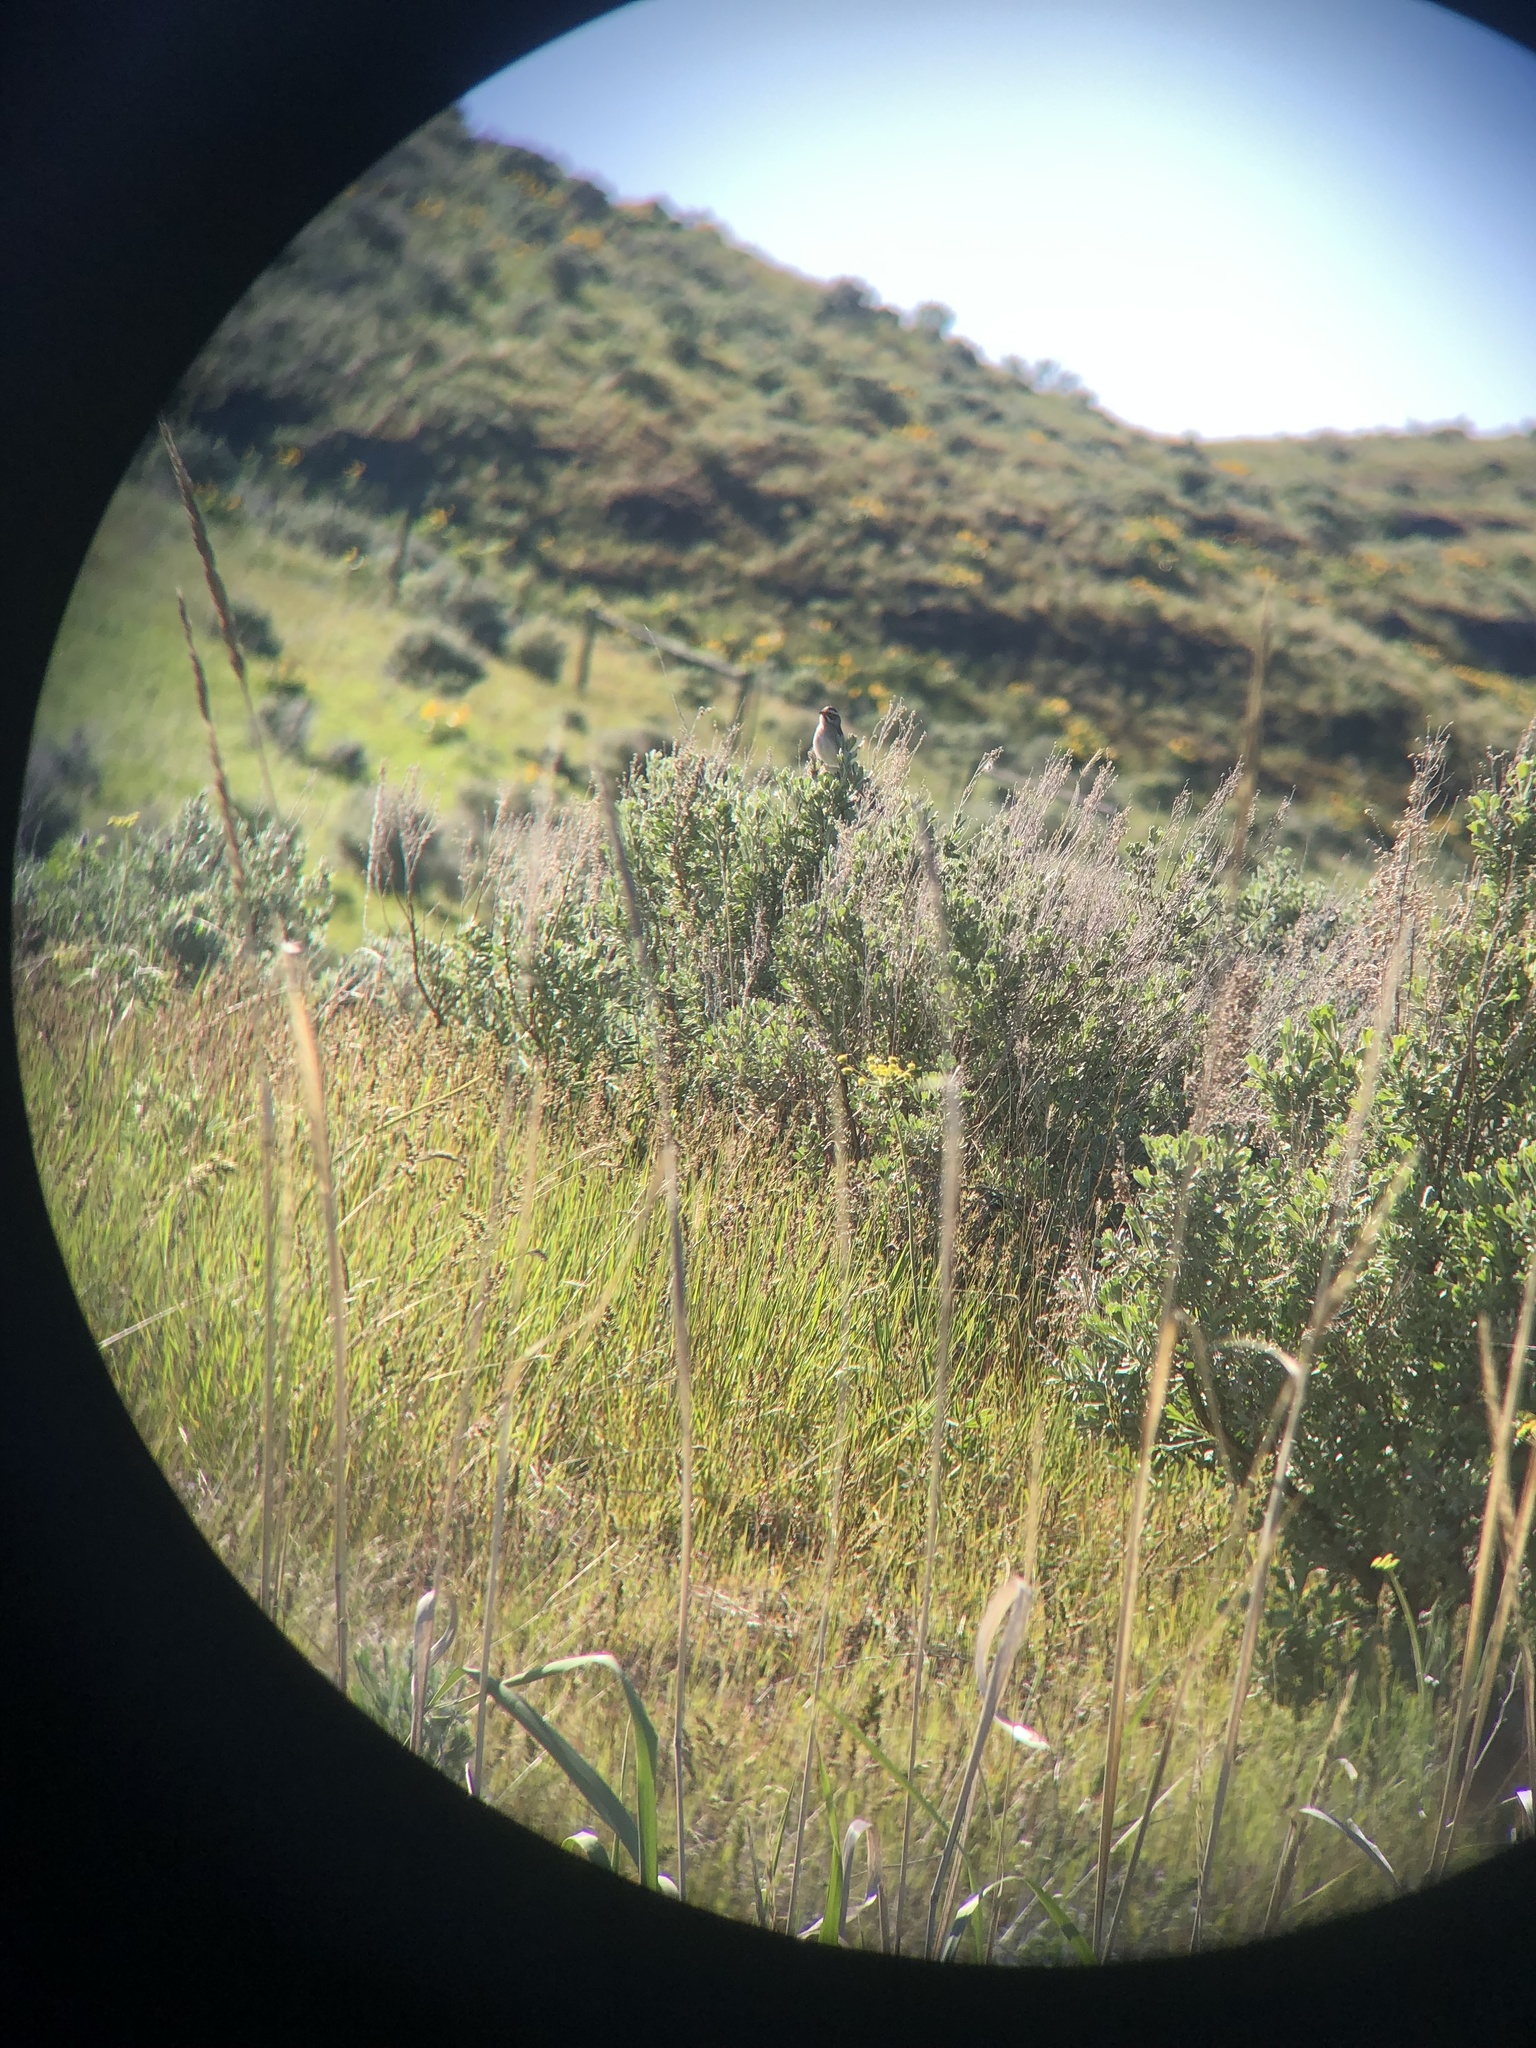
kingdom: Animalia
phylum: Chordata
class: Aves
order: Passeriformes
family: Passerellidae
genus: Spizella
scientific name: Spizella pallida
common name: Clay-colored sparrow
